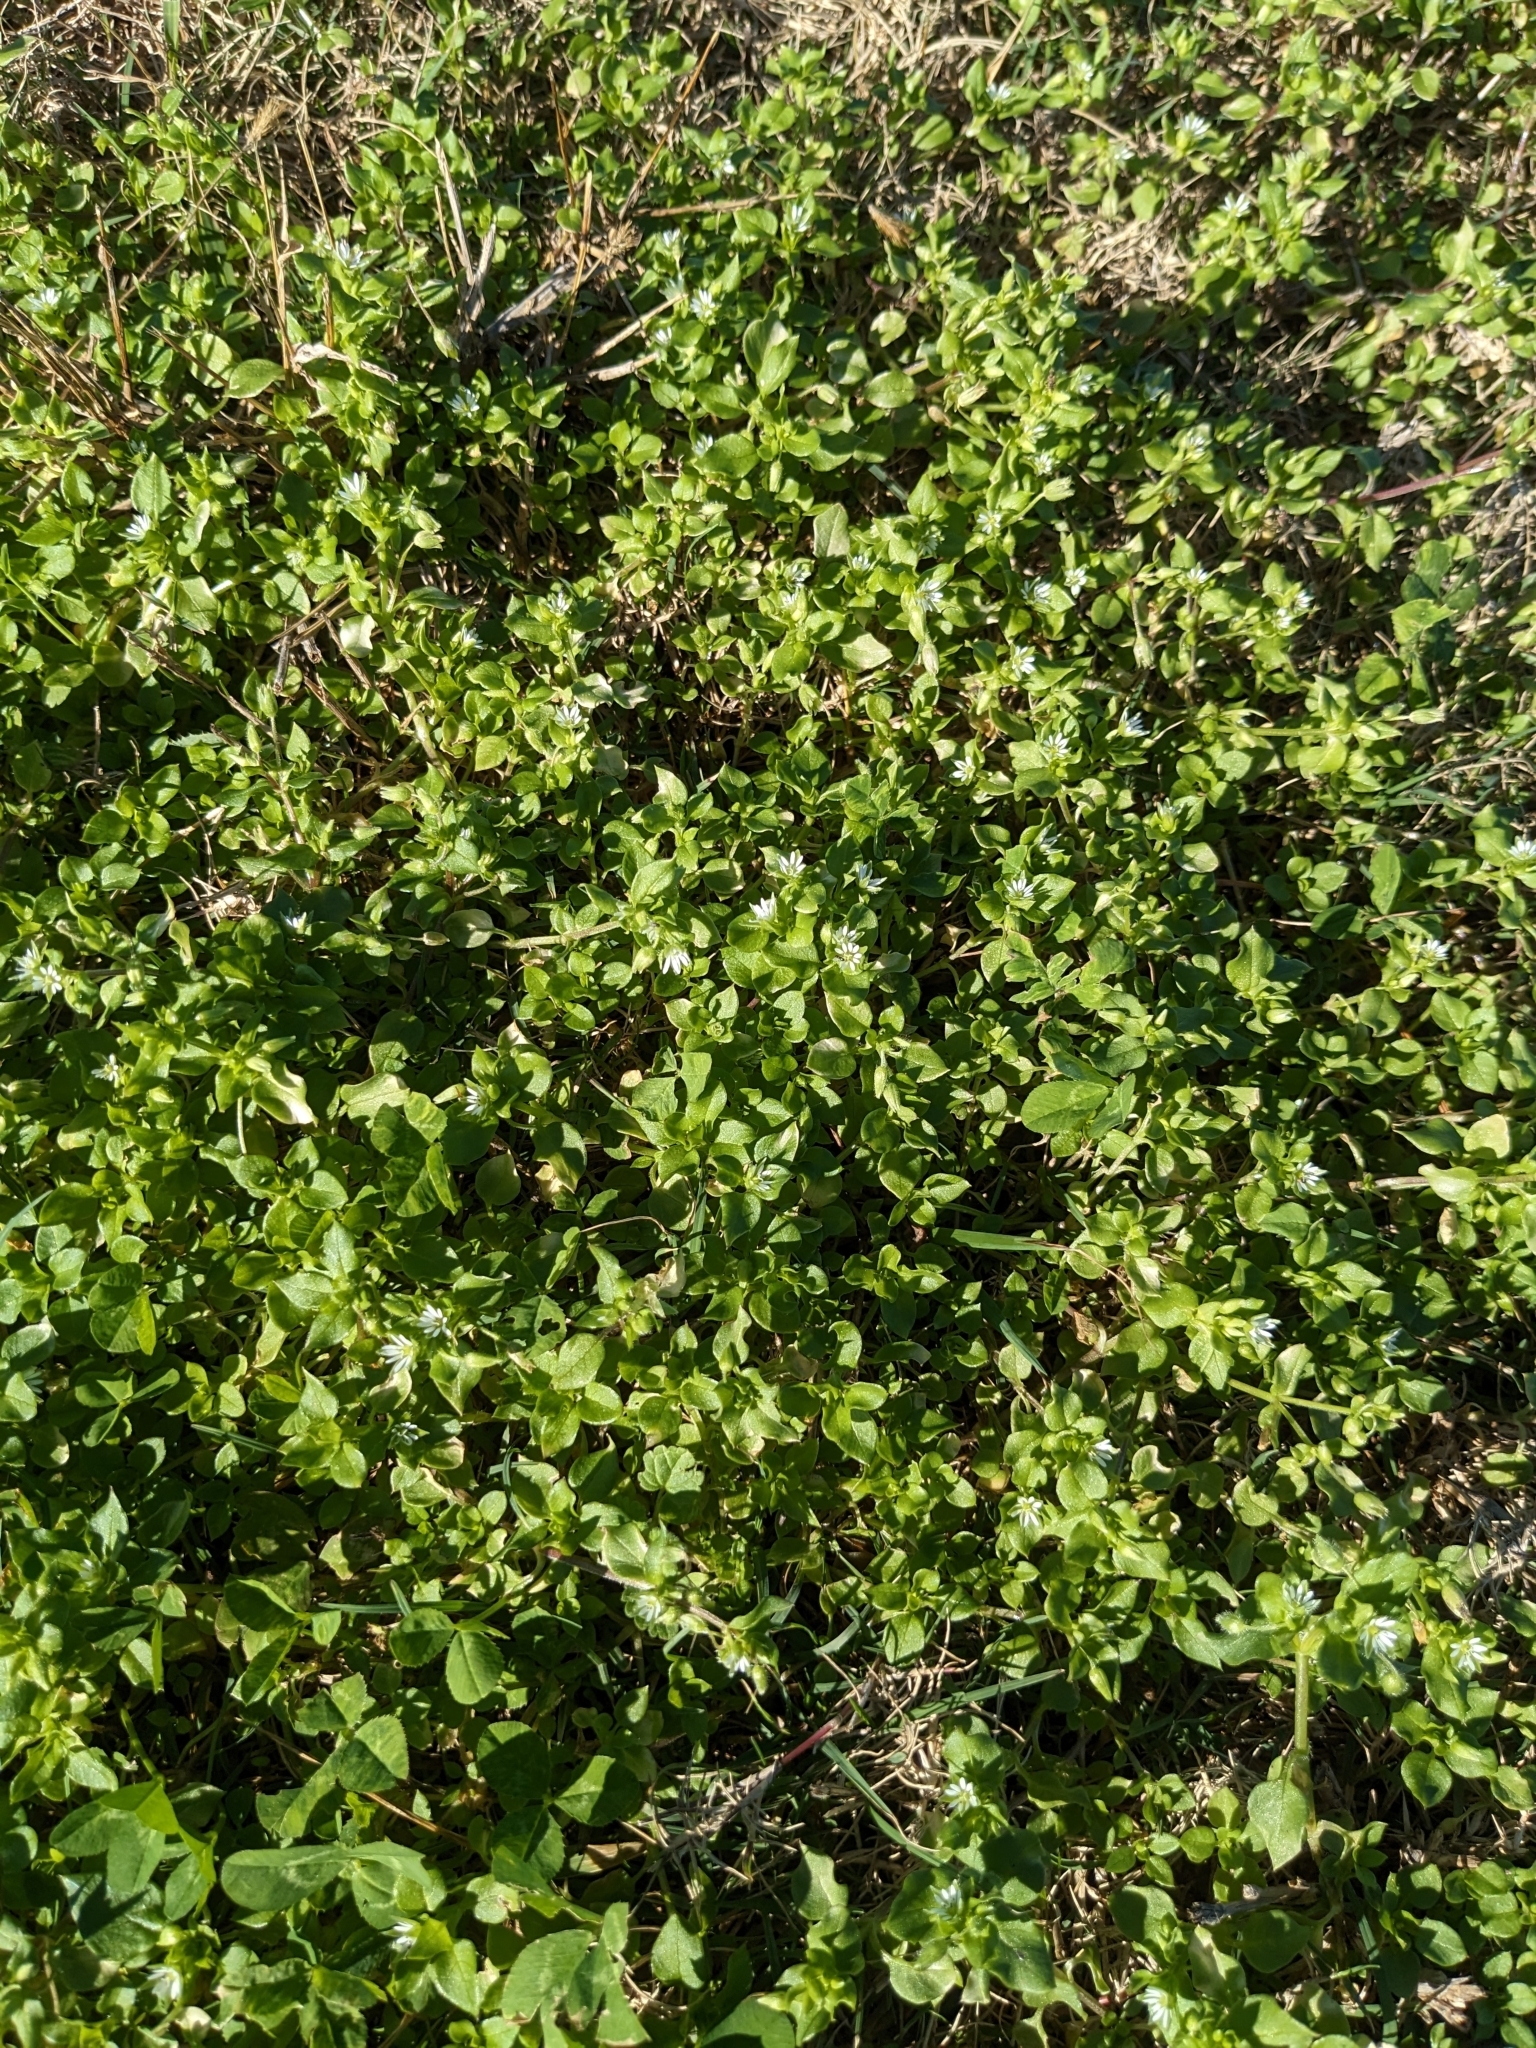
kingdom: Plantae
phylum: Tracheophyta
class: Magnoliopsida
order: Caryophyllales
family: Caryophyllaceae
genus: Stellaria
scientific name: Stellaria media
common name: Common chickweed
